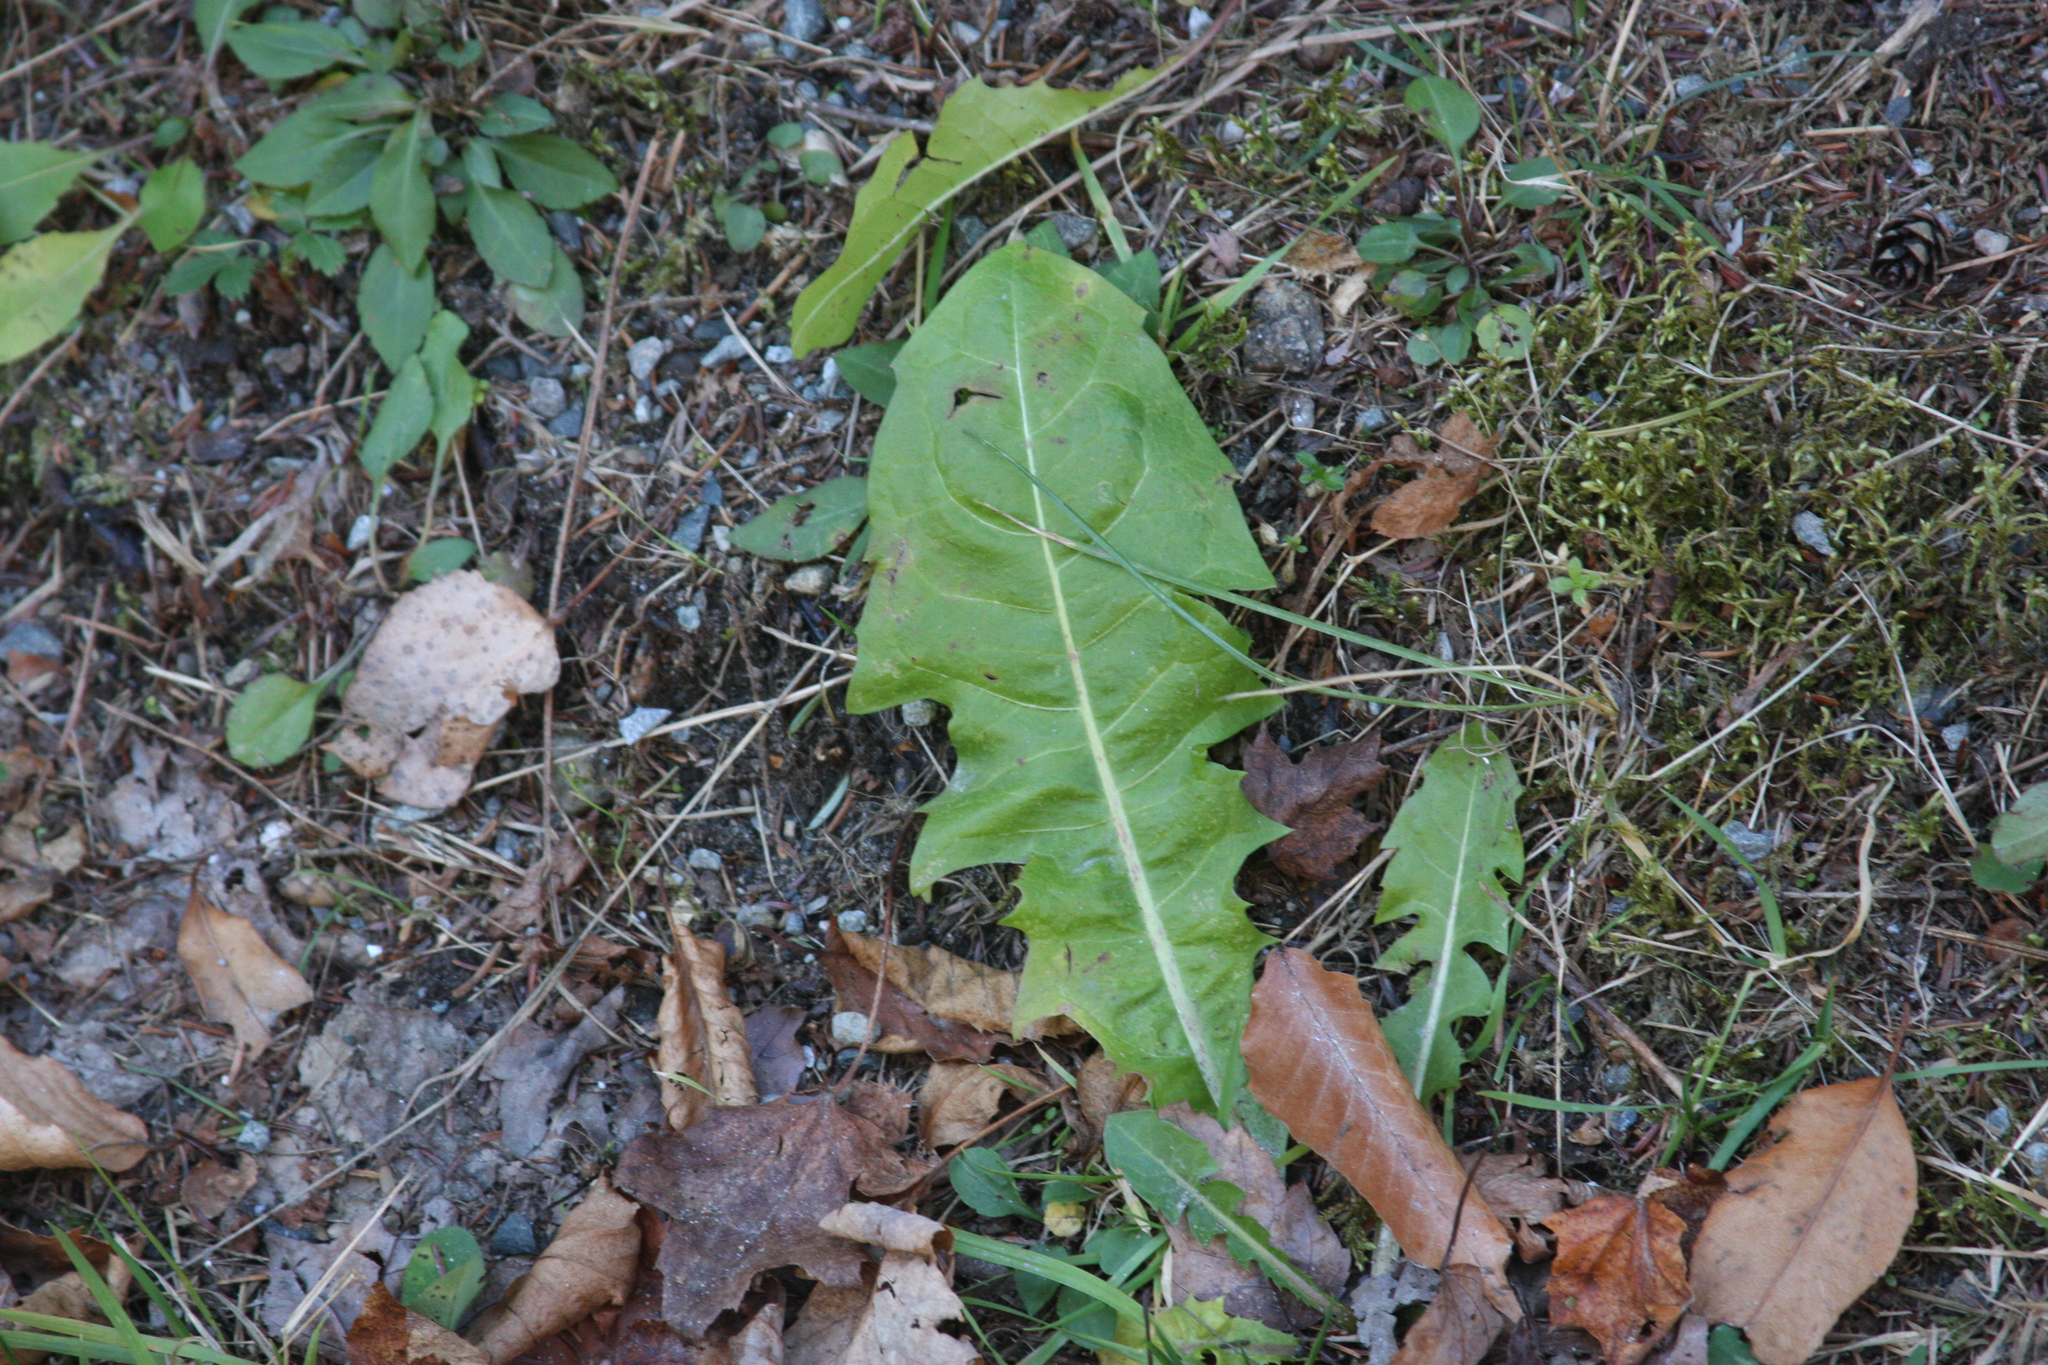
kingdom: Plantae
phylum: Tracheophyta
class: Magnoliopsida
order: Asterales
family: Asteraceae
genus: Taraxacum
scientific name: Taraxacum officinale
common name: Common dandelion
